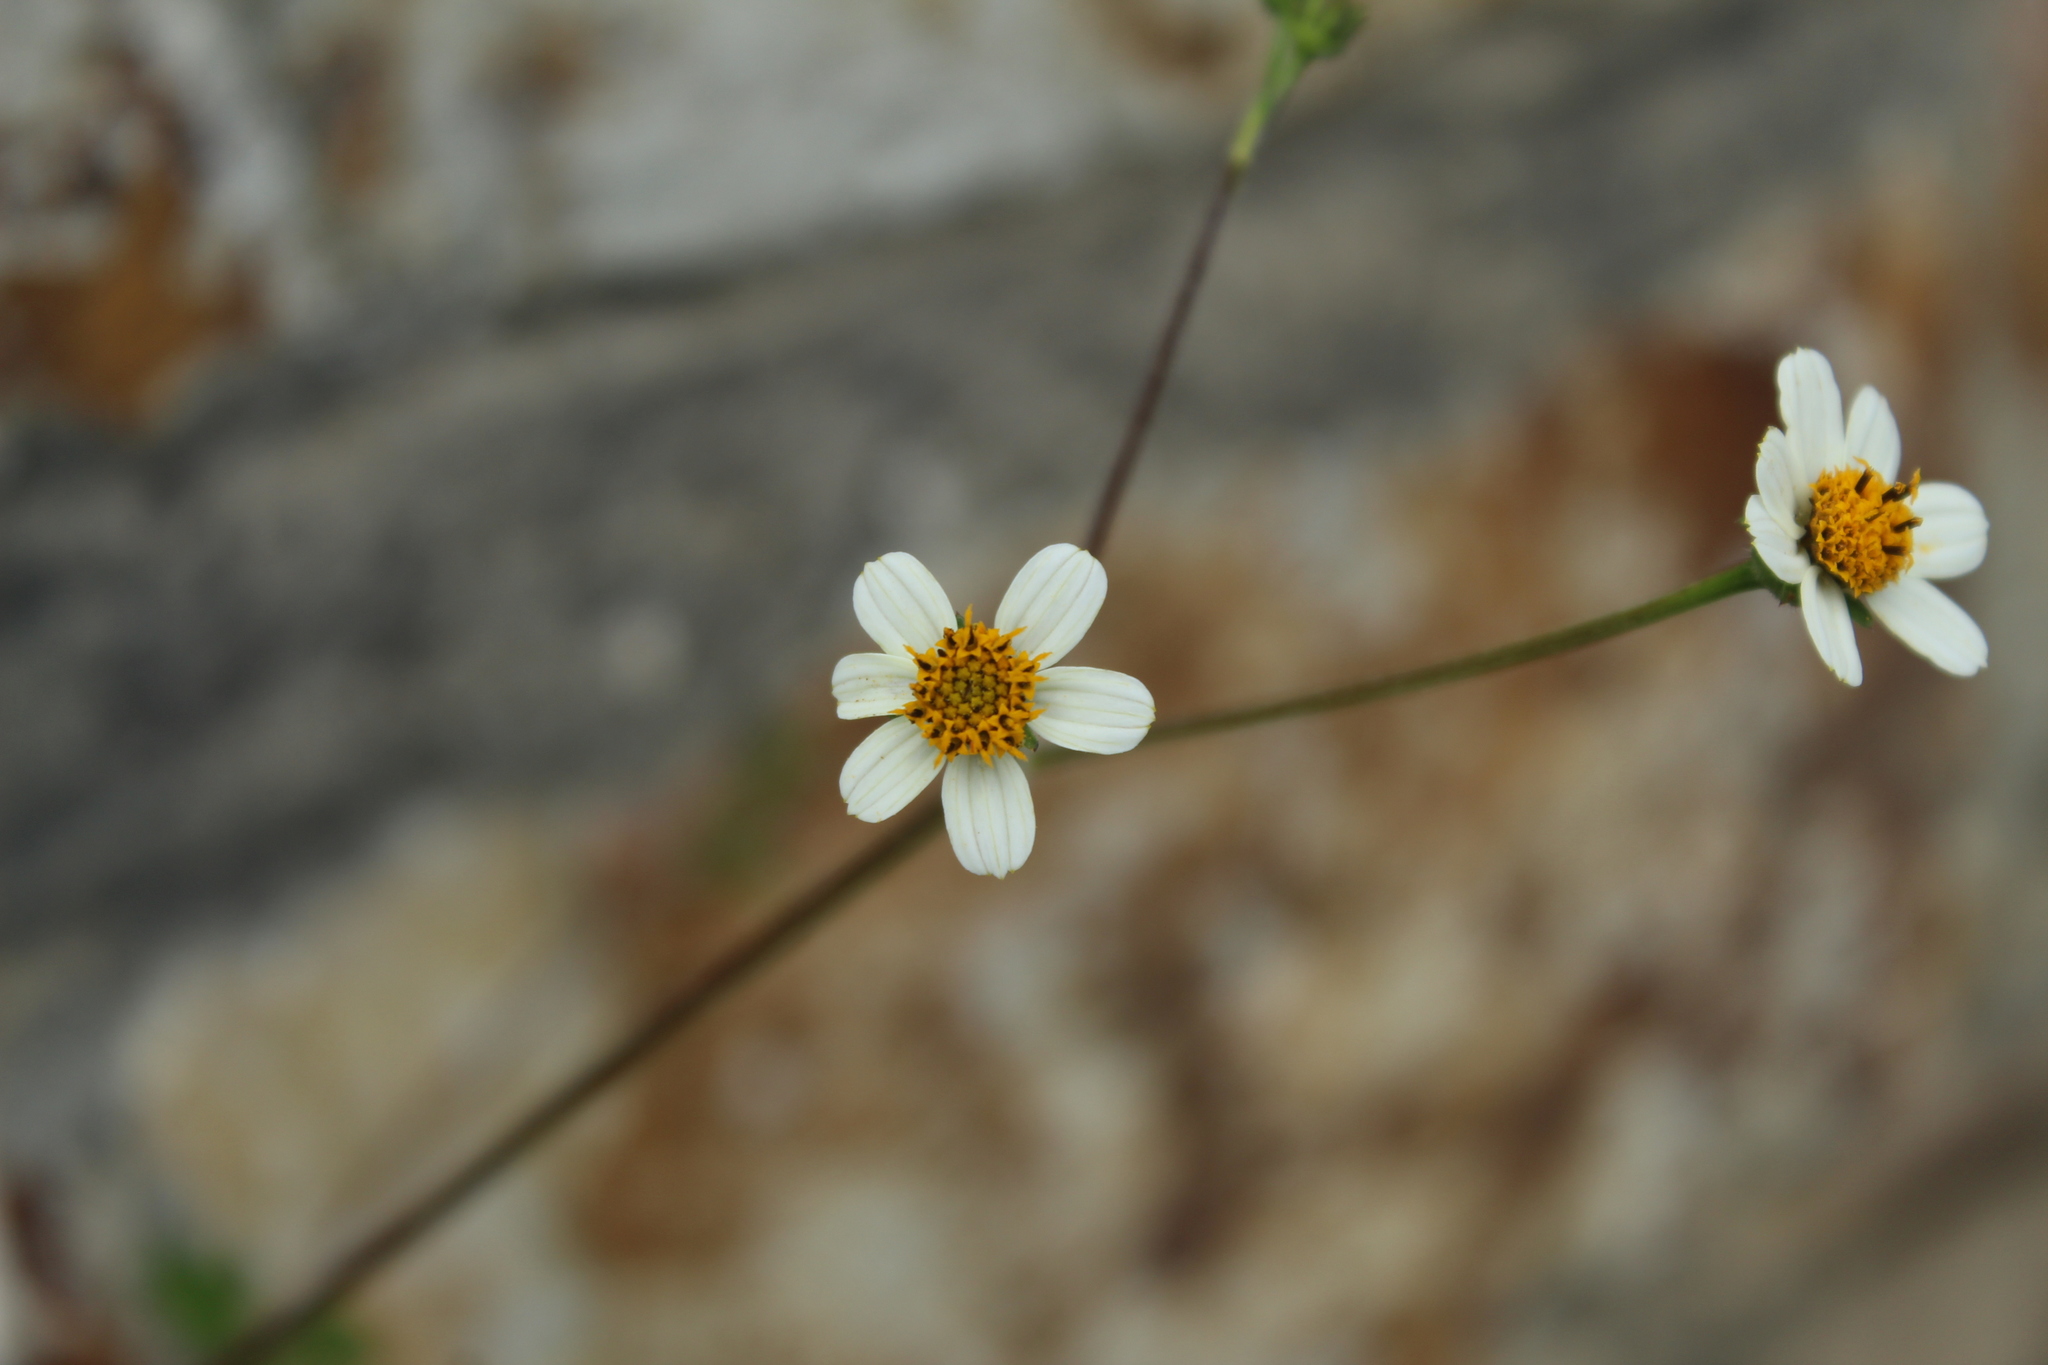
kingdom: Plantae
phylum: Tracheophyta
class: Magnoliopsida
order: Asterales
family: Asteraceae
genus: Bidens
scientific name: Bidens alba
